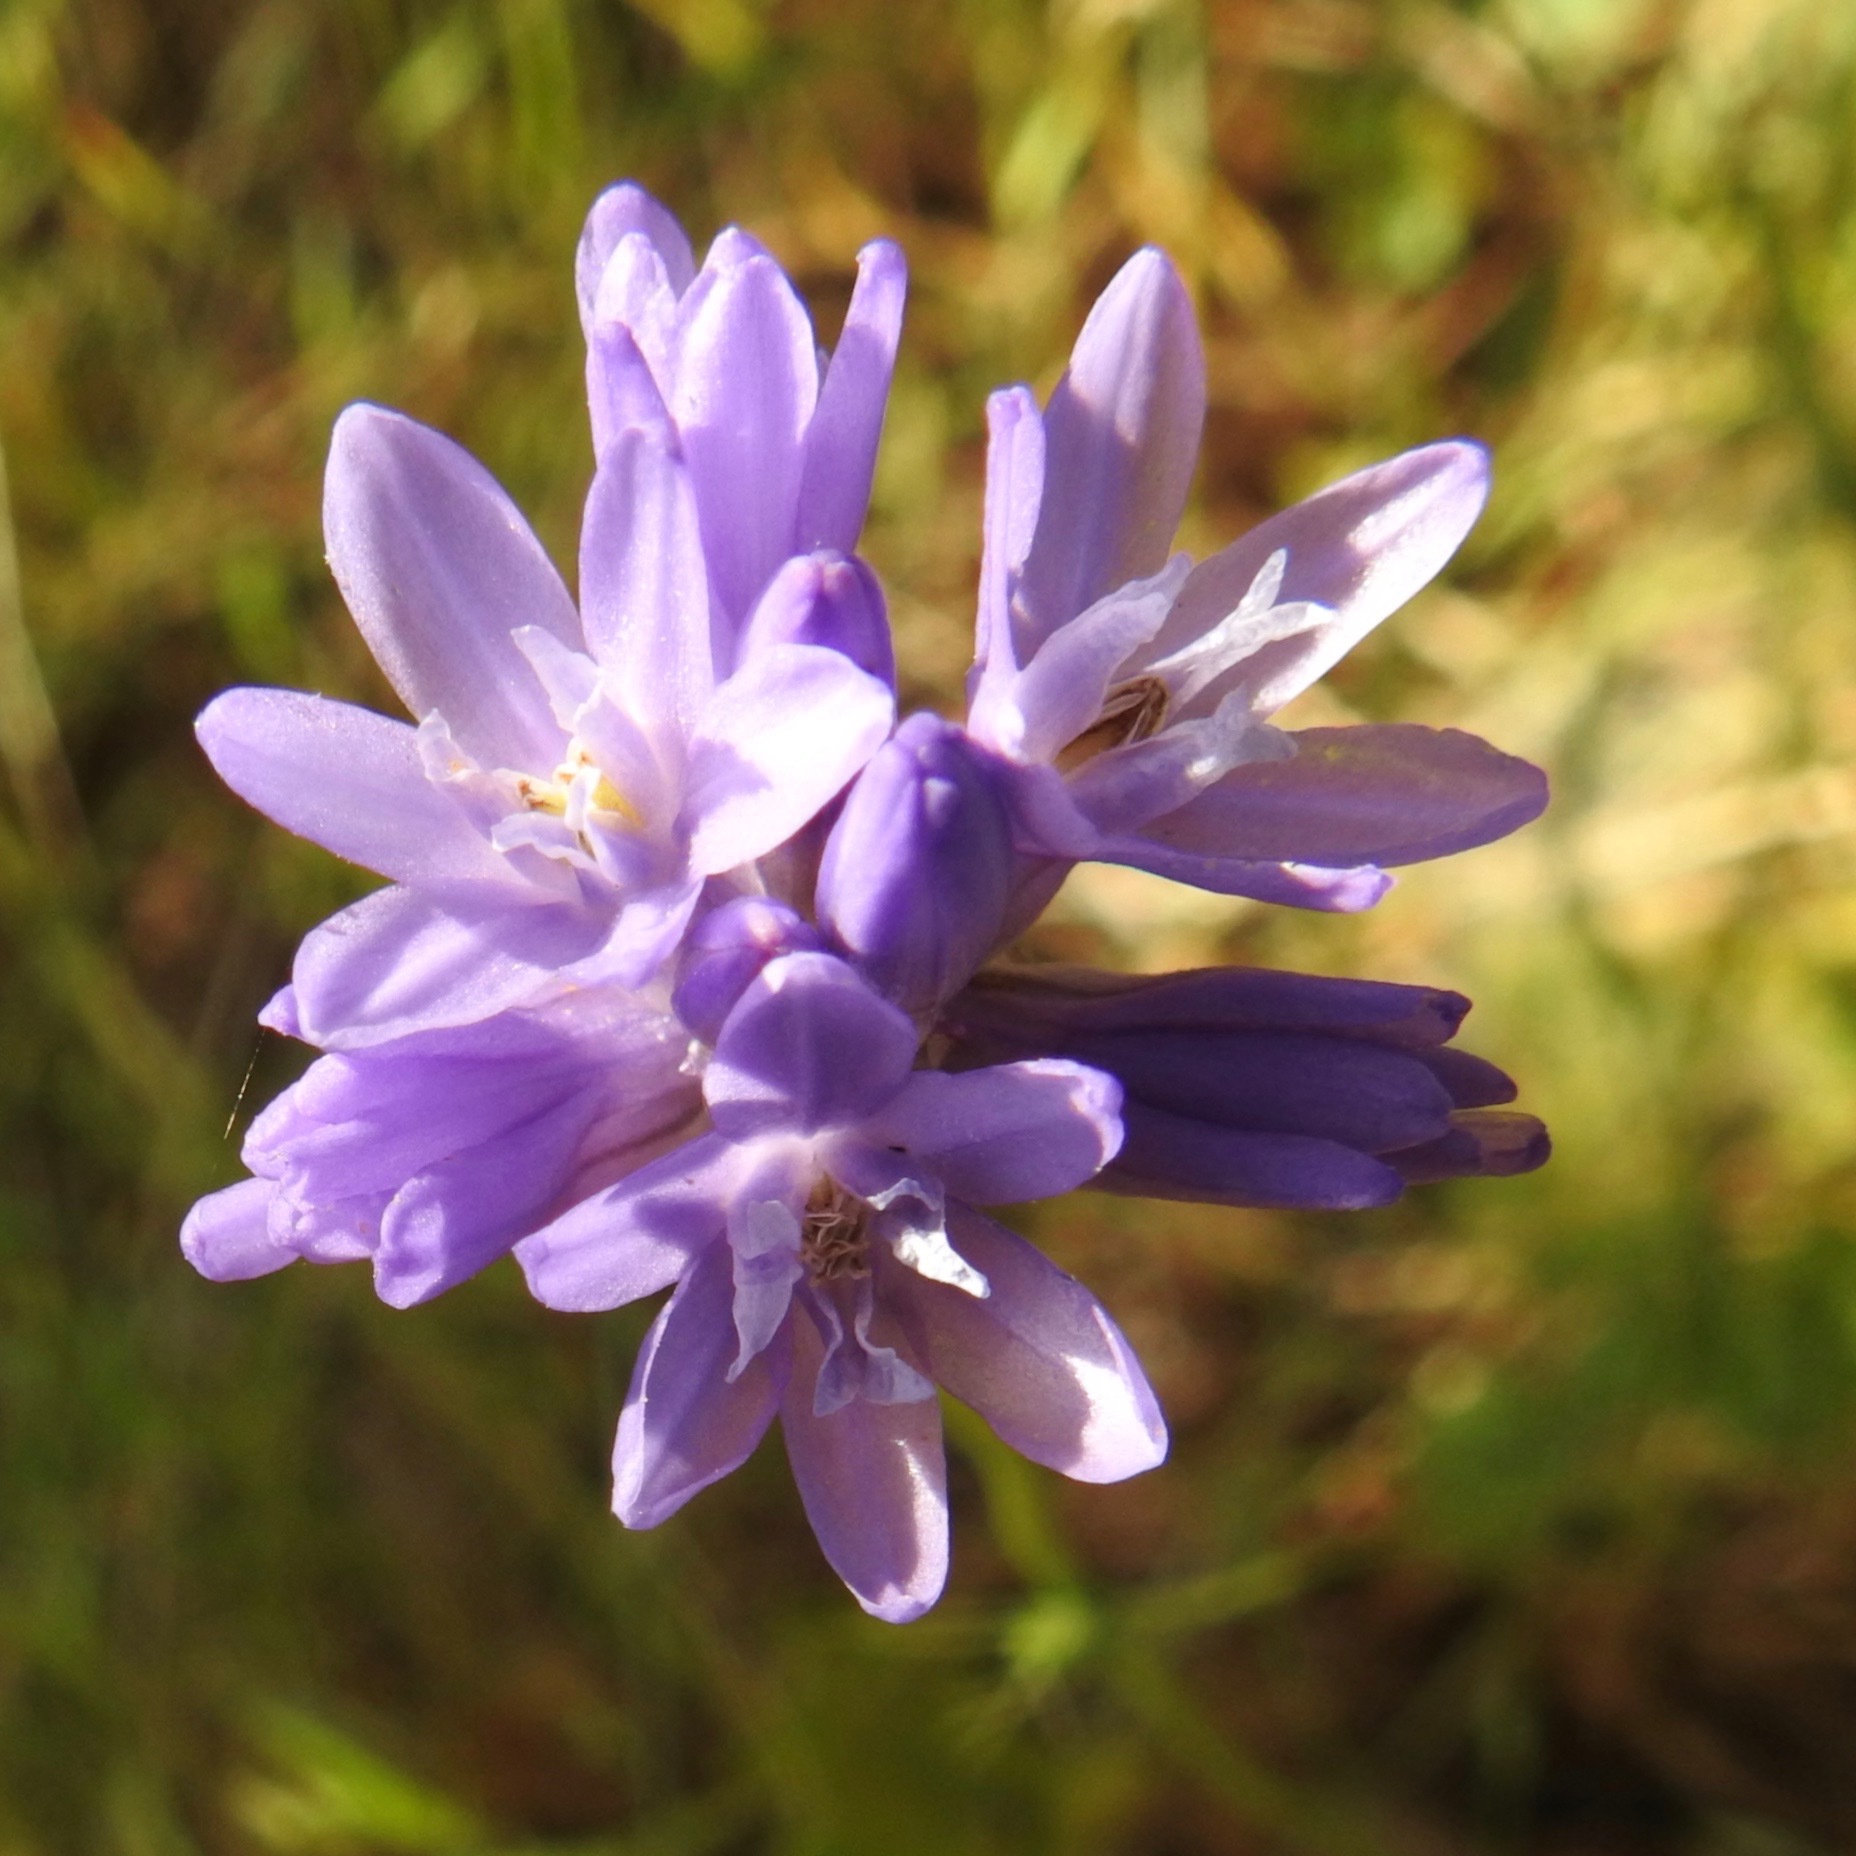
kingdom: Plantae
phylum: Tracheophyta
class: Liliopsida
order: Asparagales
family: Asparagaceae
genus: Dichelostemma
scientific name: Dichelostemma congestum
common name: Fork-tooth ookow
